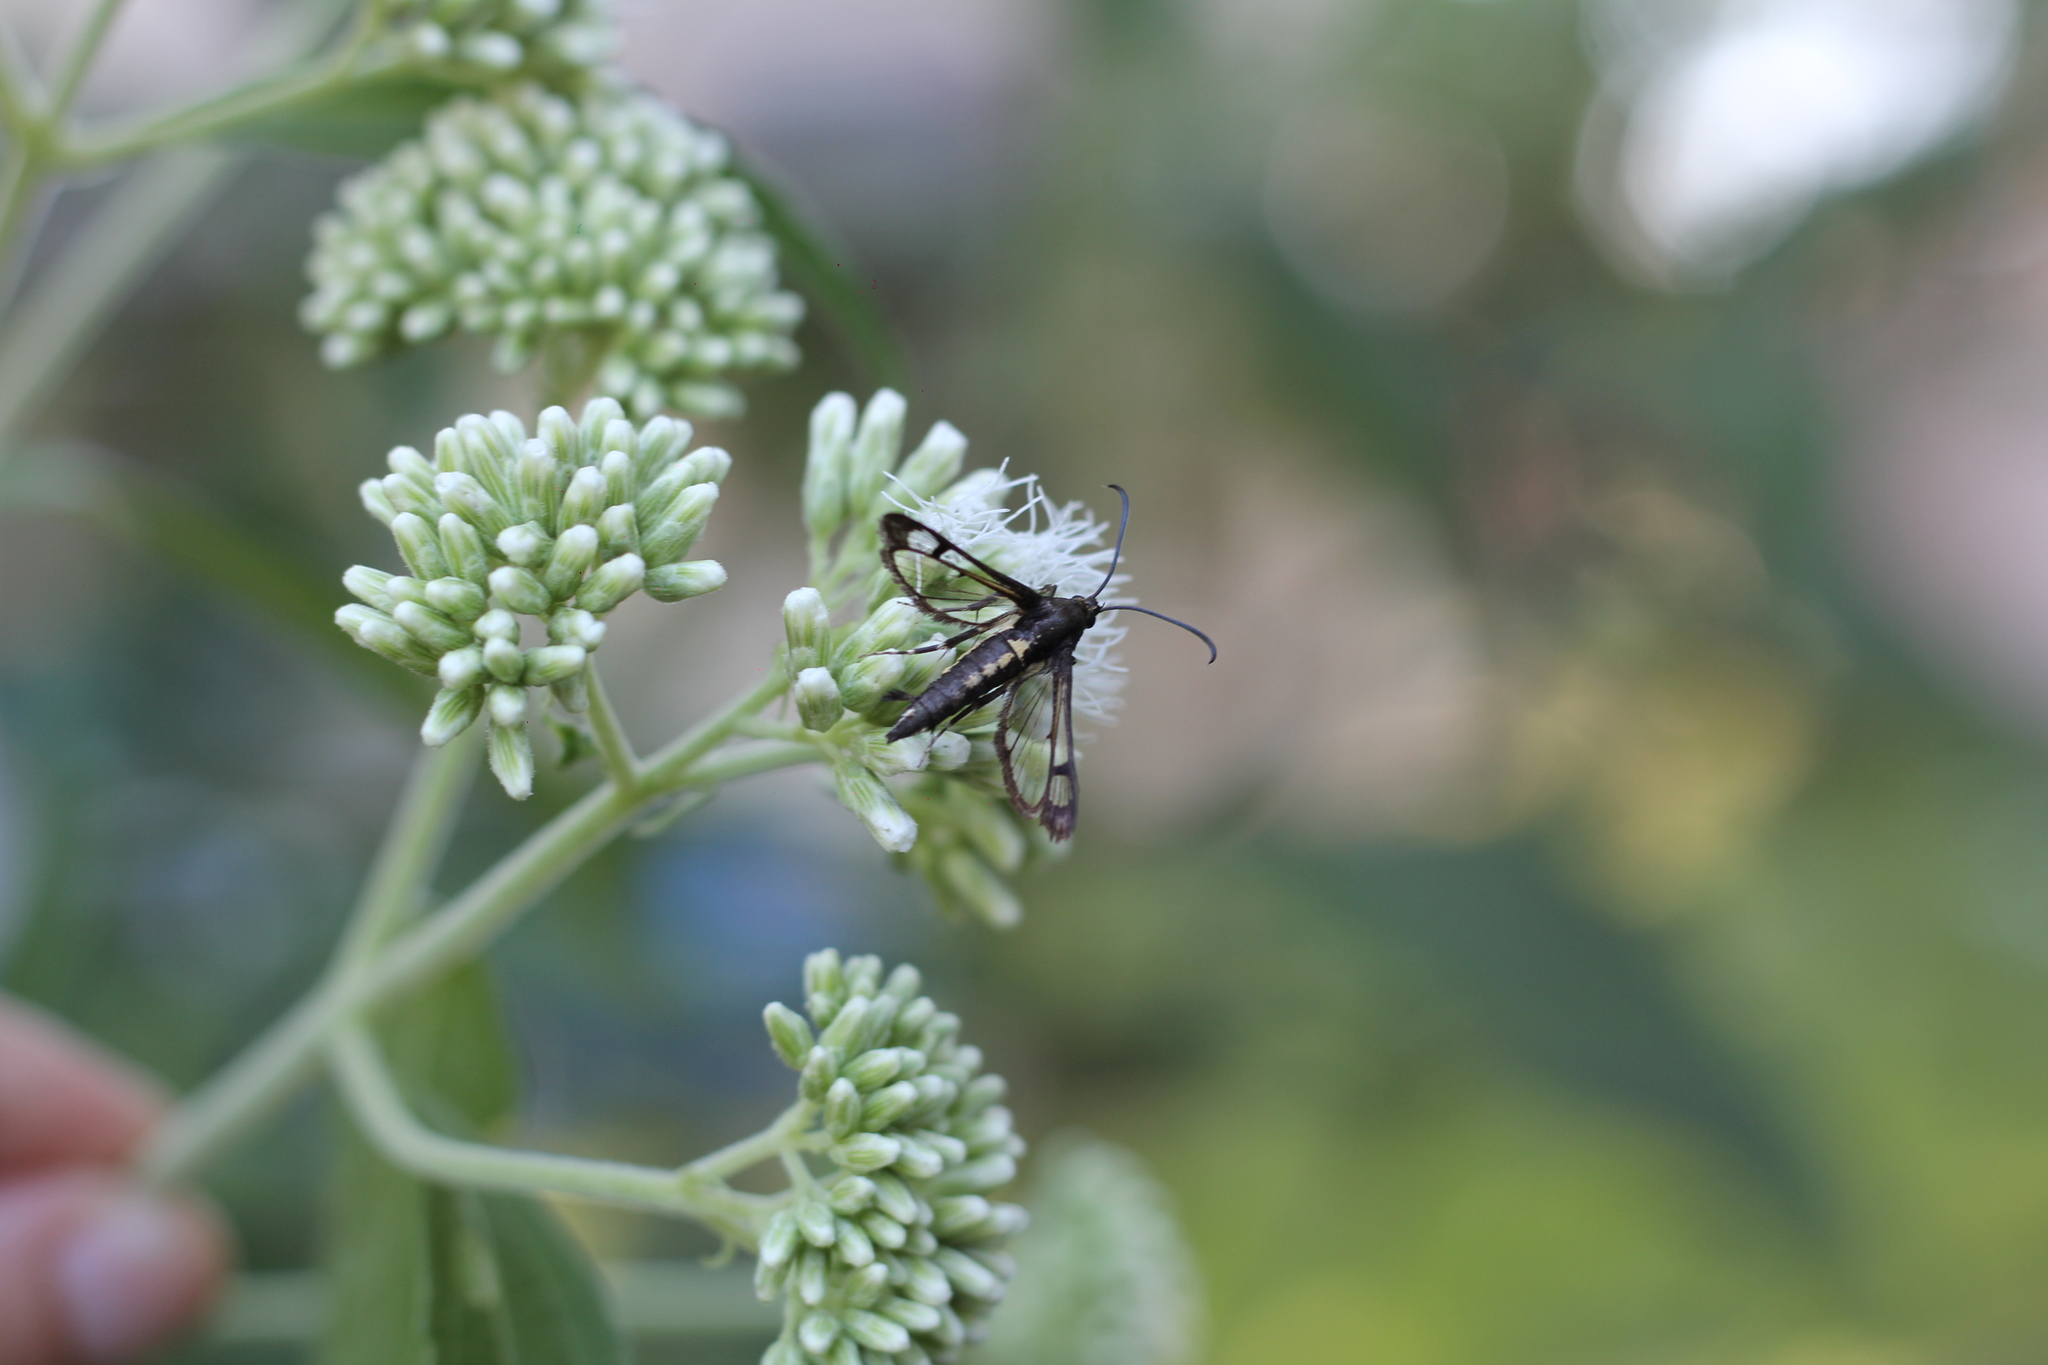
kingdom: Animalia
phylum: Arthropoda
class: Insecta
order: Lepidoptera
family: Sesiidae
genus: Carmenta
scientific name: Carmenta wagneri
